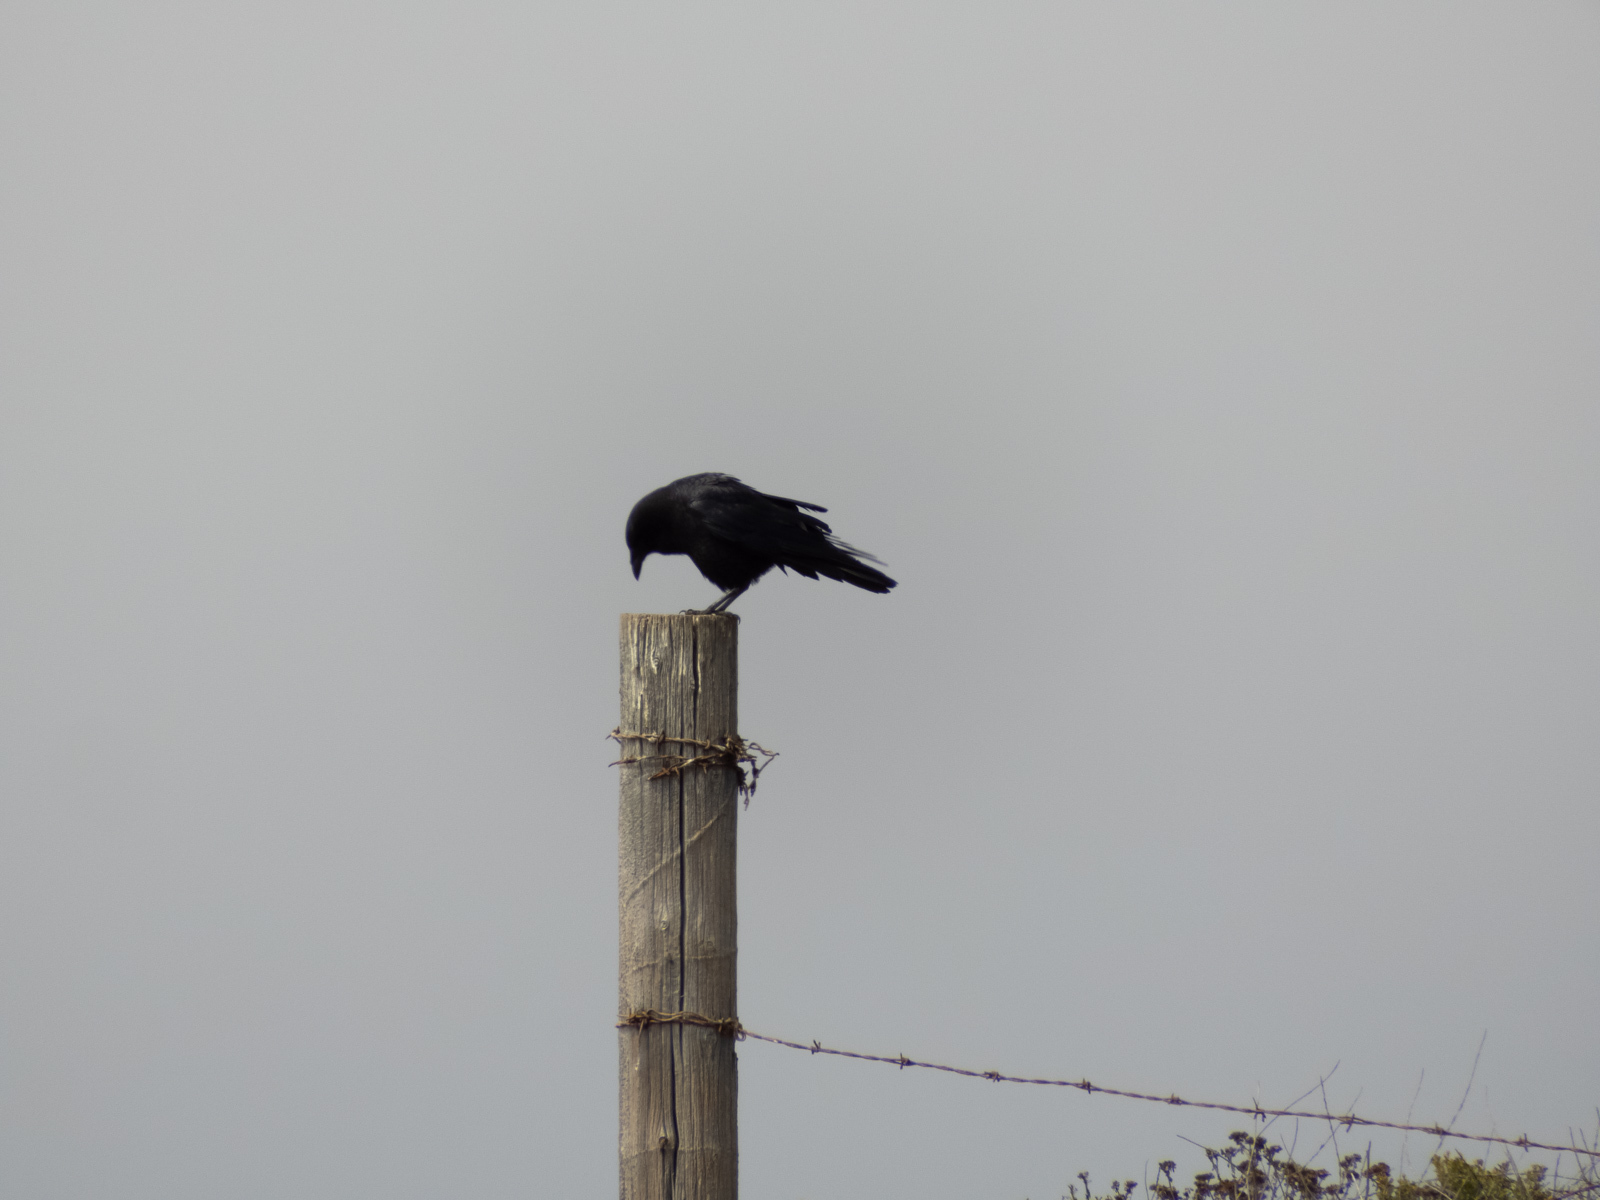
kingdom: Animalia
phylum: Chordata
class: Aves
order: Passeriformes
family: Corvidae
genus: Corvus
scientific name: Corvus brachyrhynchos
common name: American crow
